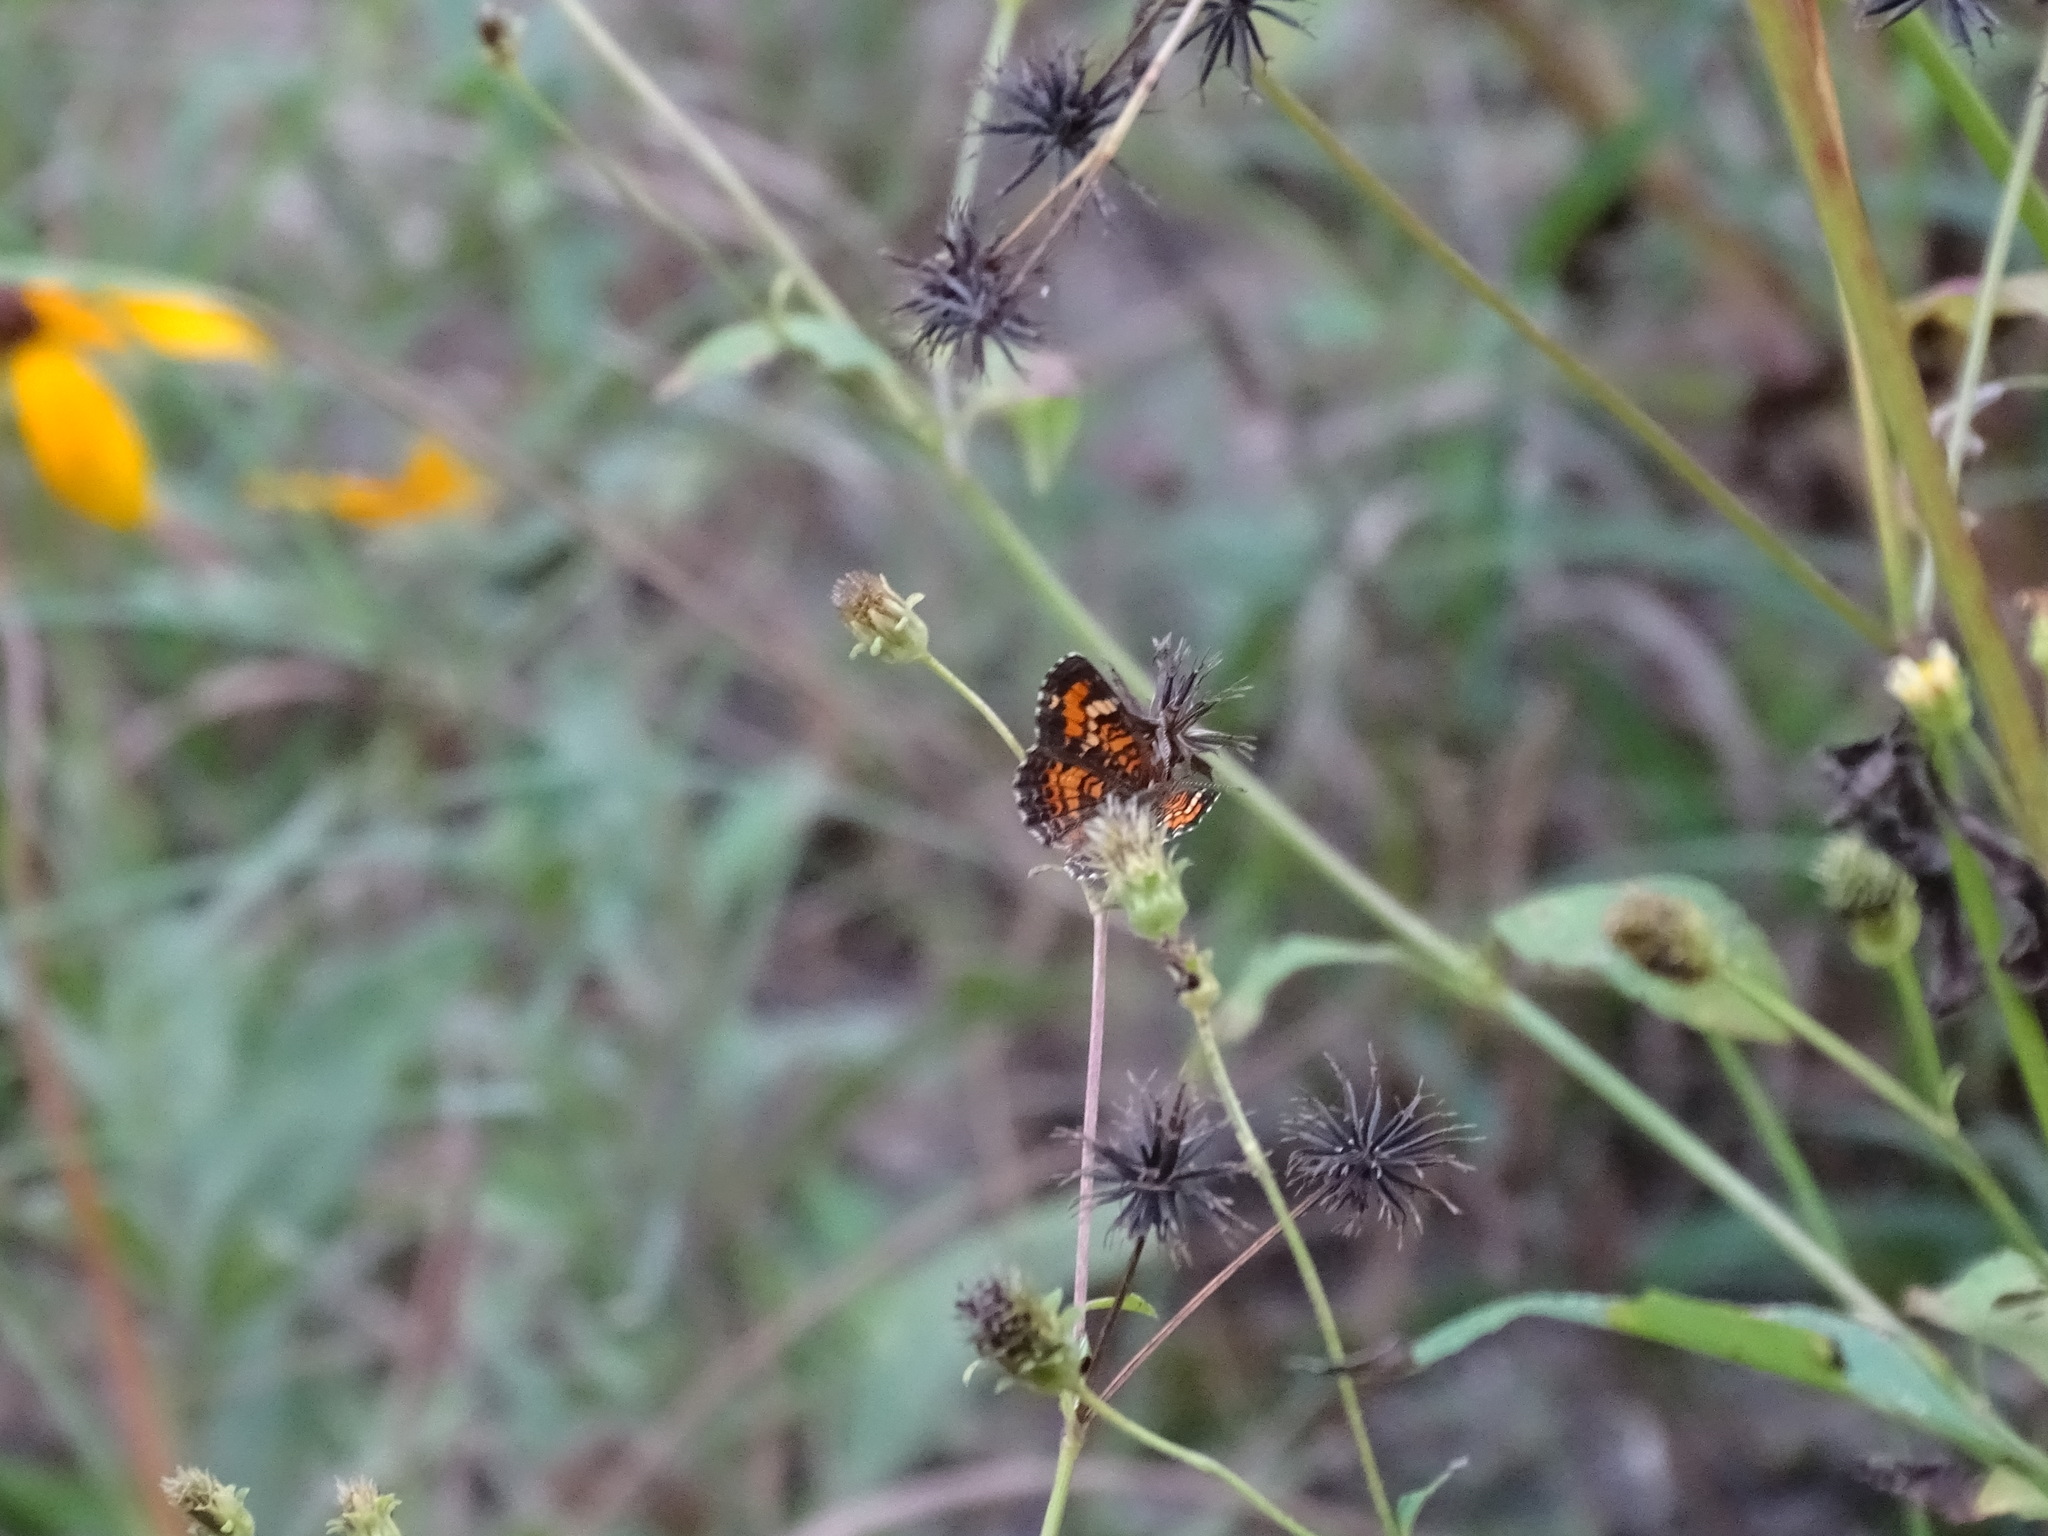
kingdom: Animalia
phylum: Arthropoda
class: Insecta
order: Lepidoptera
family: Nymphalidae
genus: Phyciodes
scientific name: Phyciodes phaon
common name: Phaon crescent
